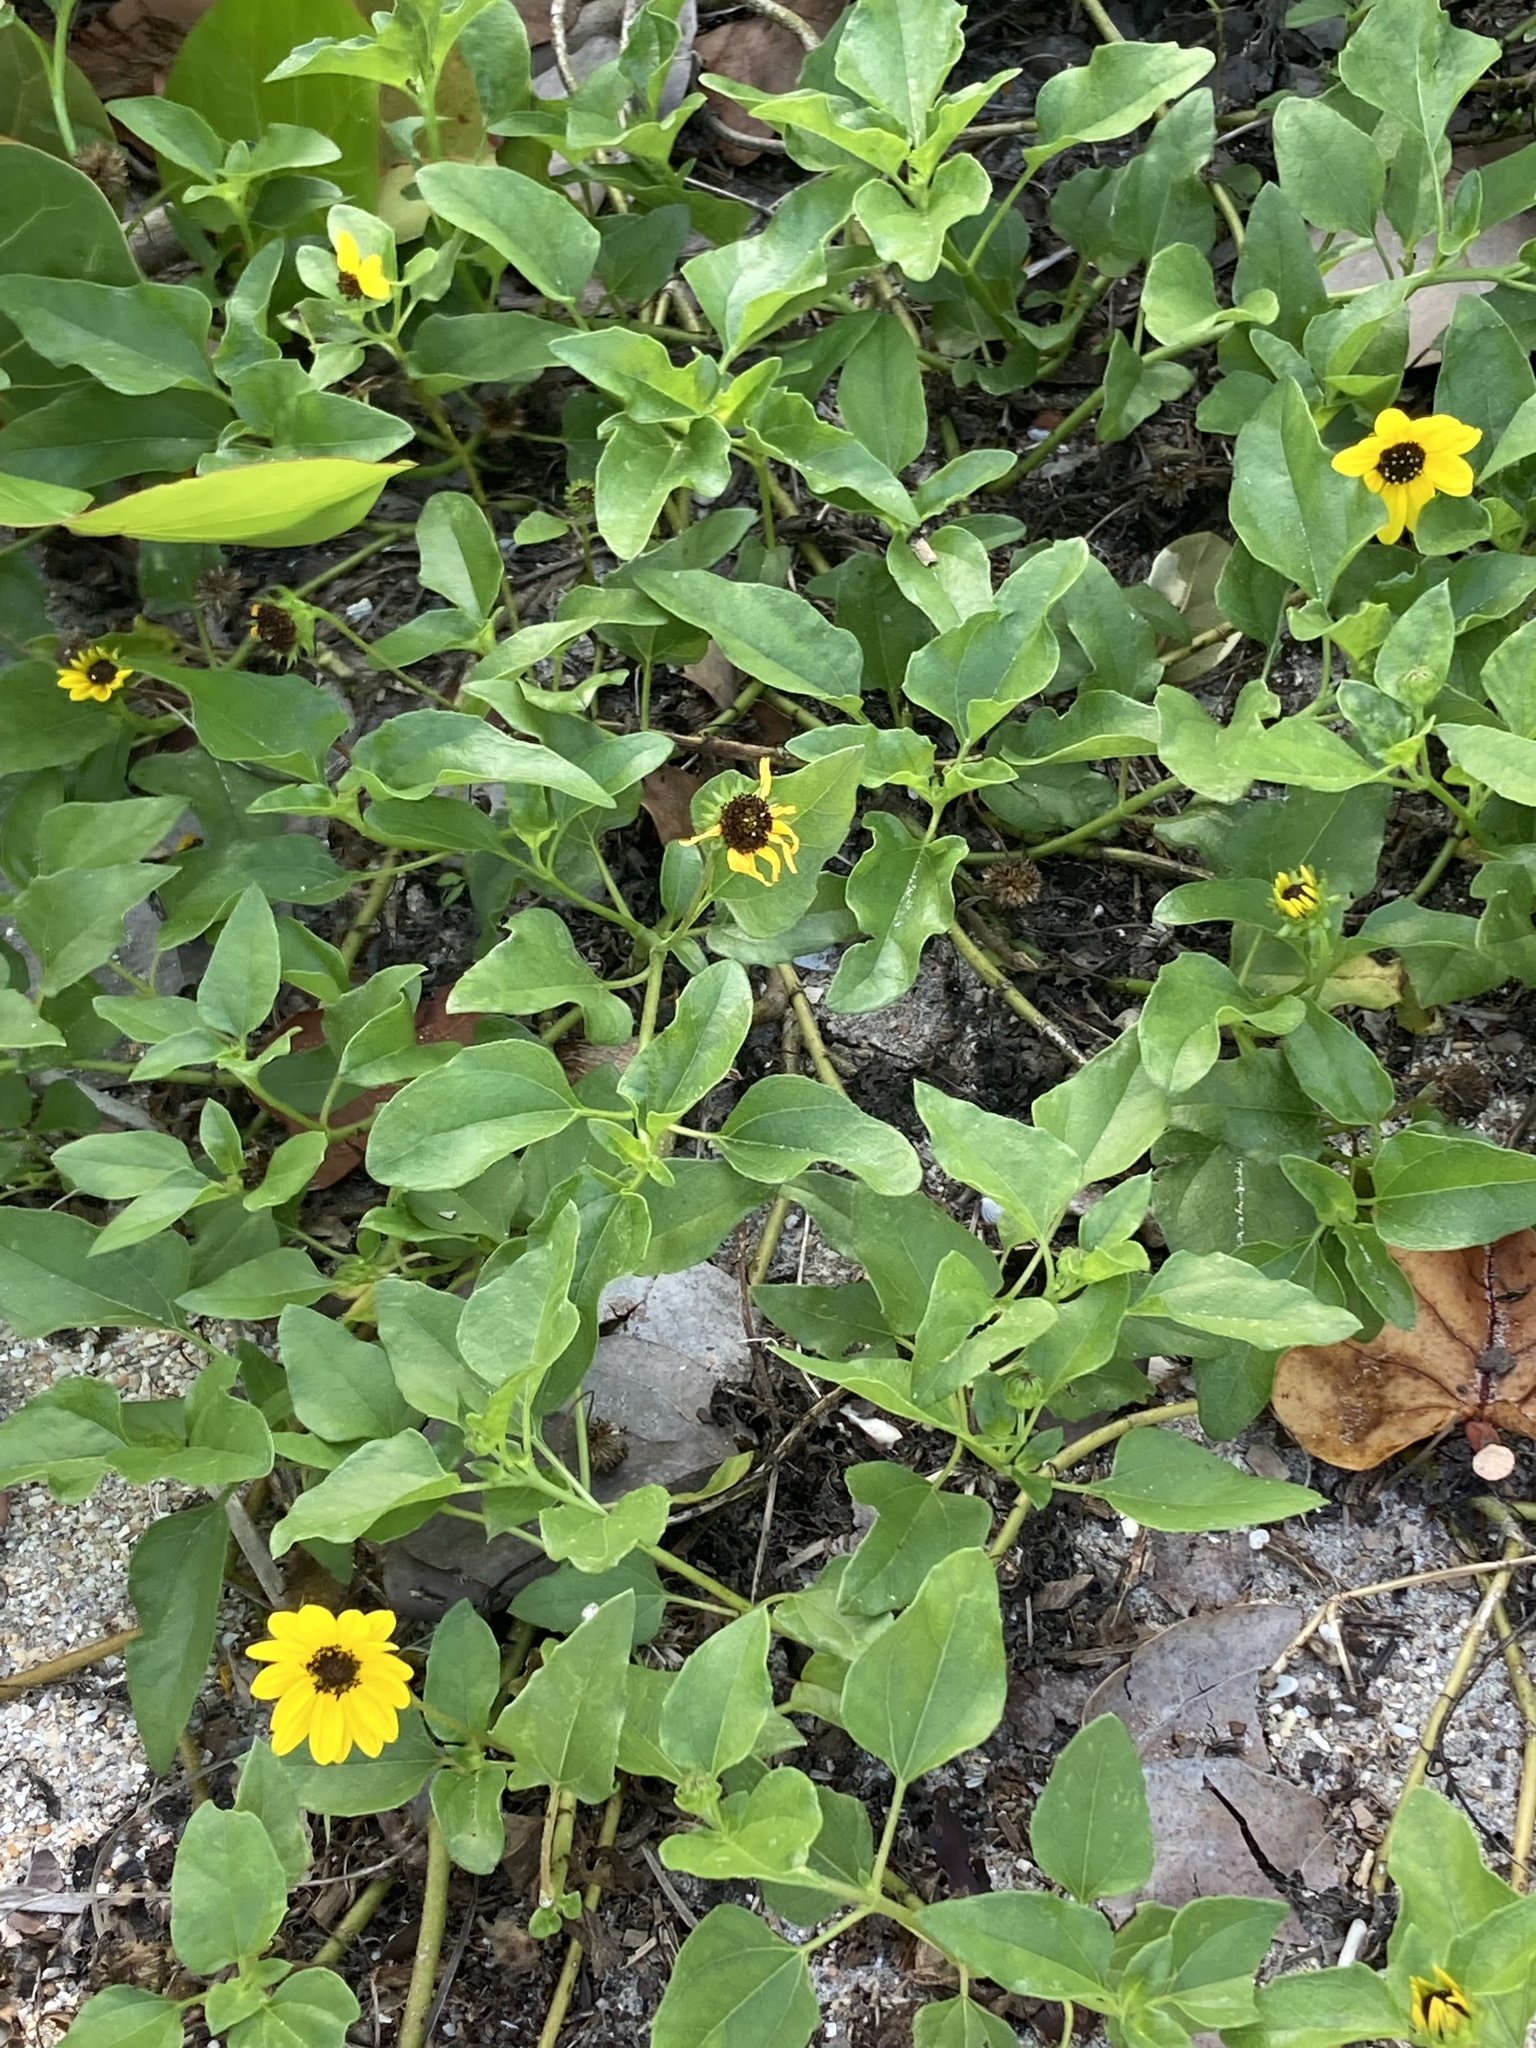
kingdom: Plantae
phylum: Tracheophyta
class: Magnoliopsida
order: Asterales
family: Asteraceae
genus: Helianthus
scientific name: Helianthus debilis
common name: Weak sunflower
